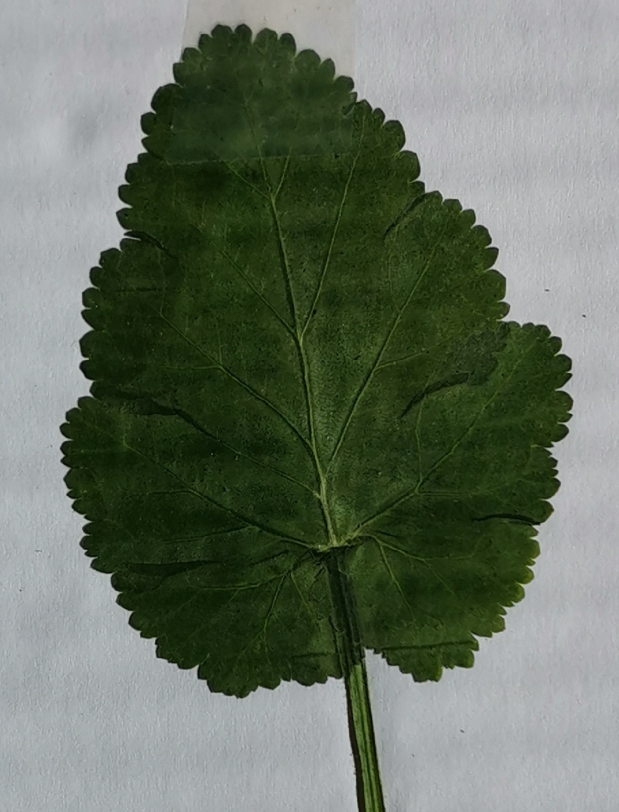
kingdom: Plantae
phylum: Tracheophyta
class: Magnoliopsida
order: Geraniales
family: Geraniaceae
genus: Erodium
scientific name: Erodium malacoides
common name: Soft stork's-bill
